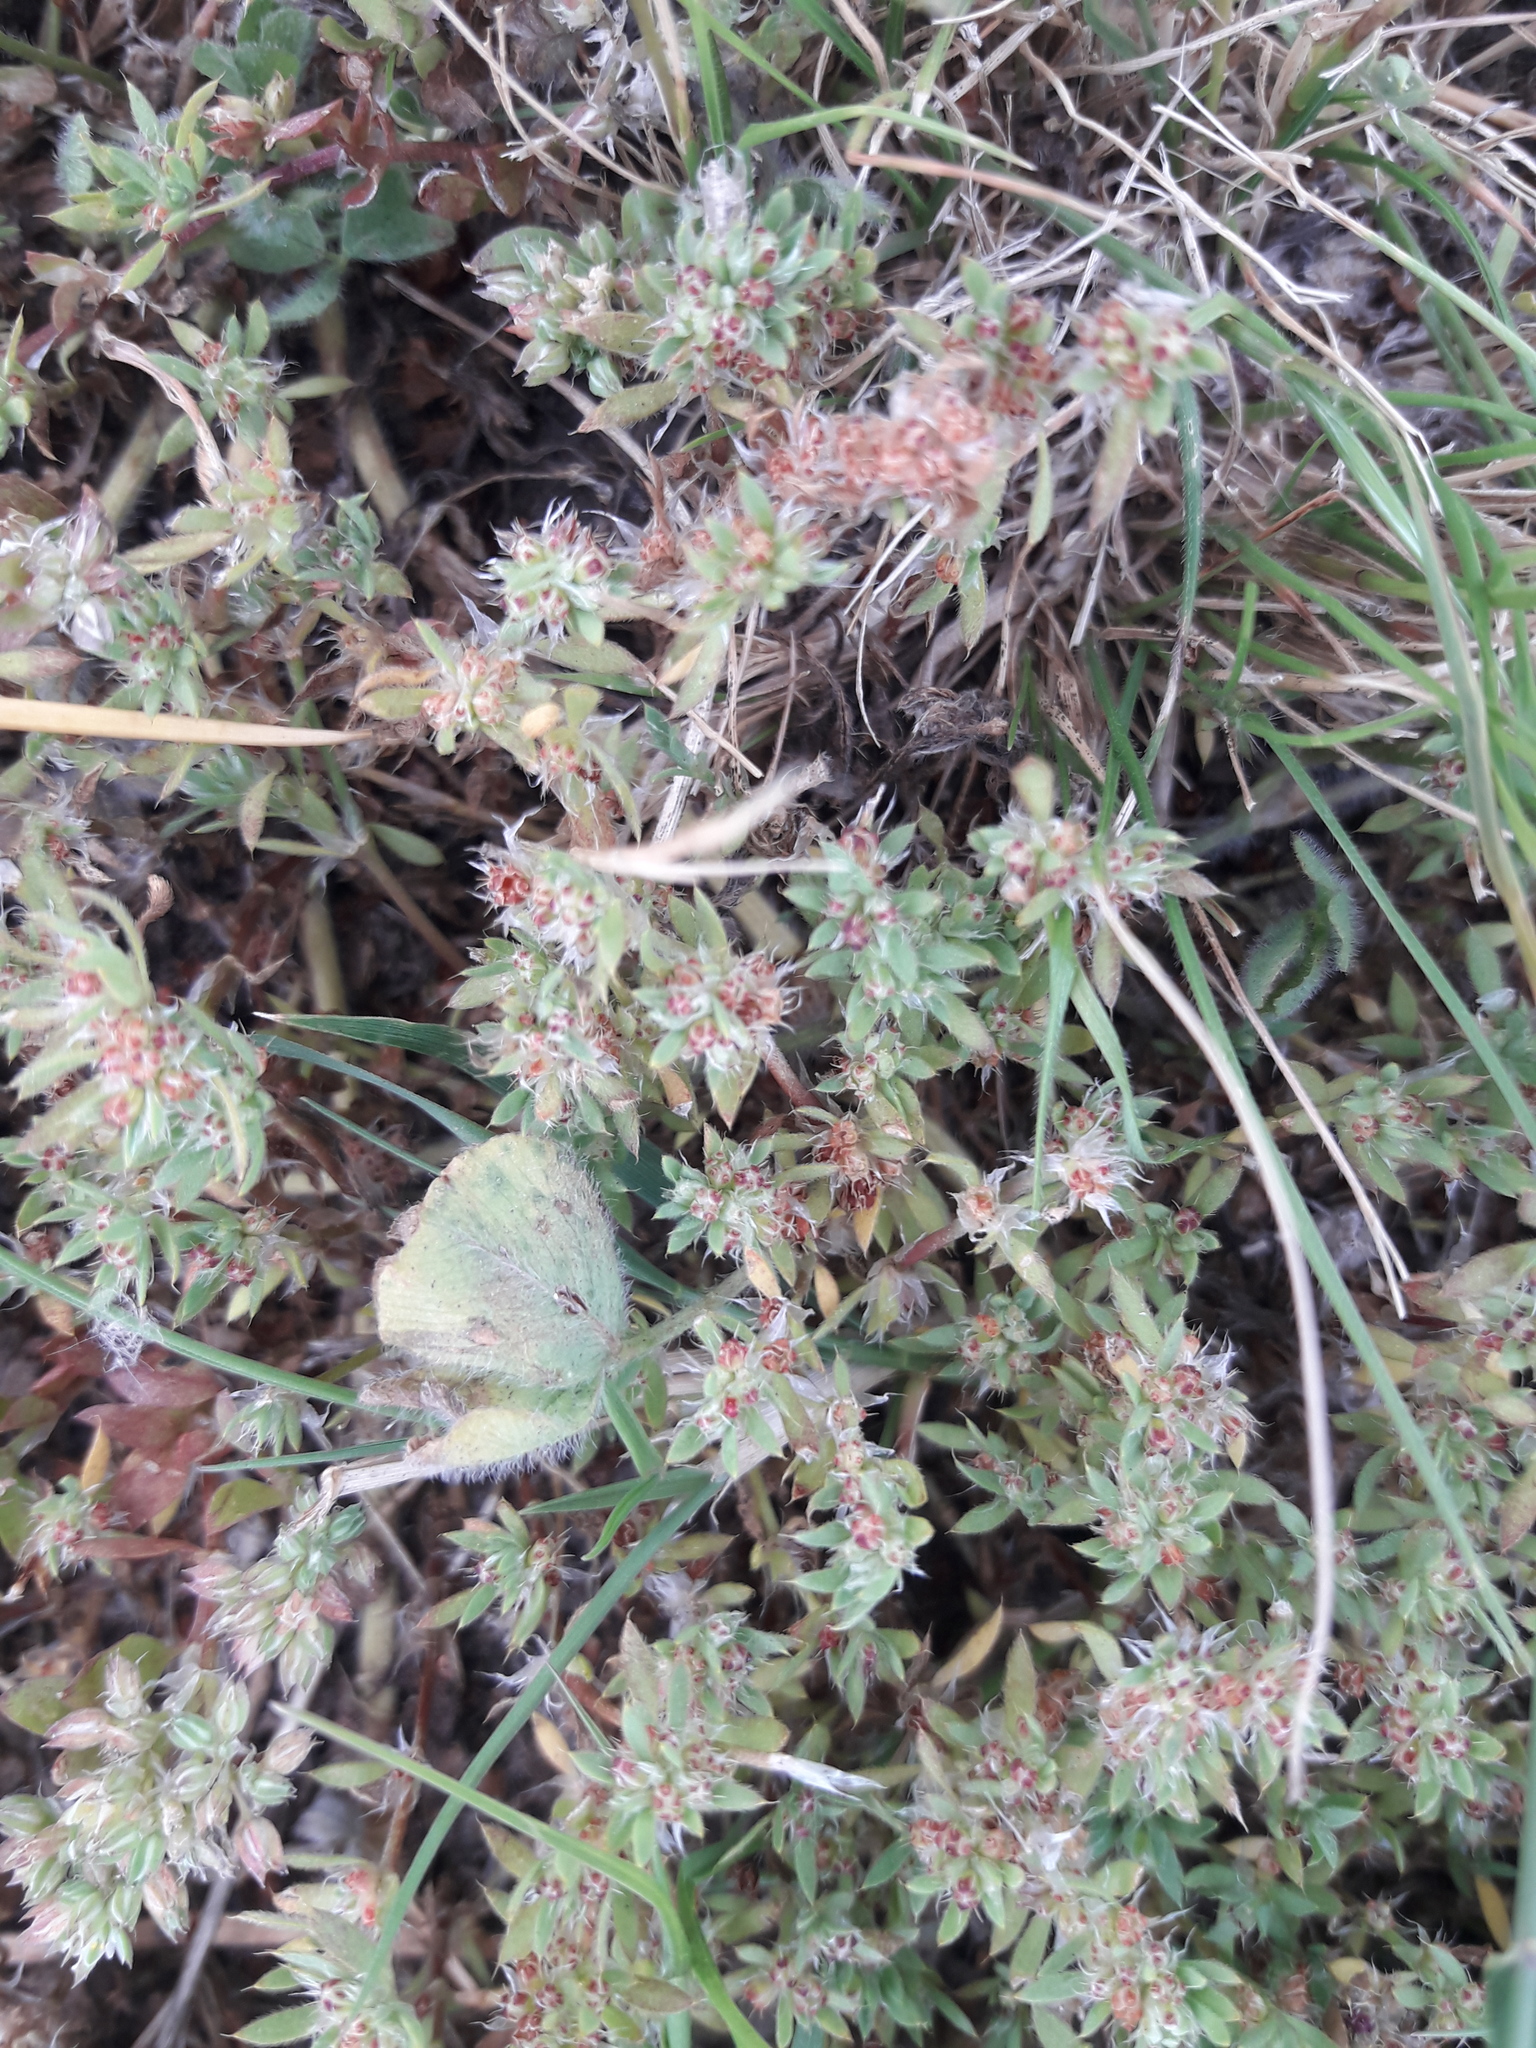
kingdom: Plantae
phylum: Tracheophyta
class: Magnoliopsida
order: Caryophyllales
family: Caryophyllaceae
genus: Paronychia
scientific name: Paronychia brasiliana
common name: Brazilian whitlow
